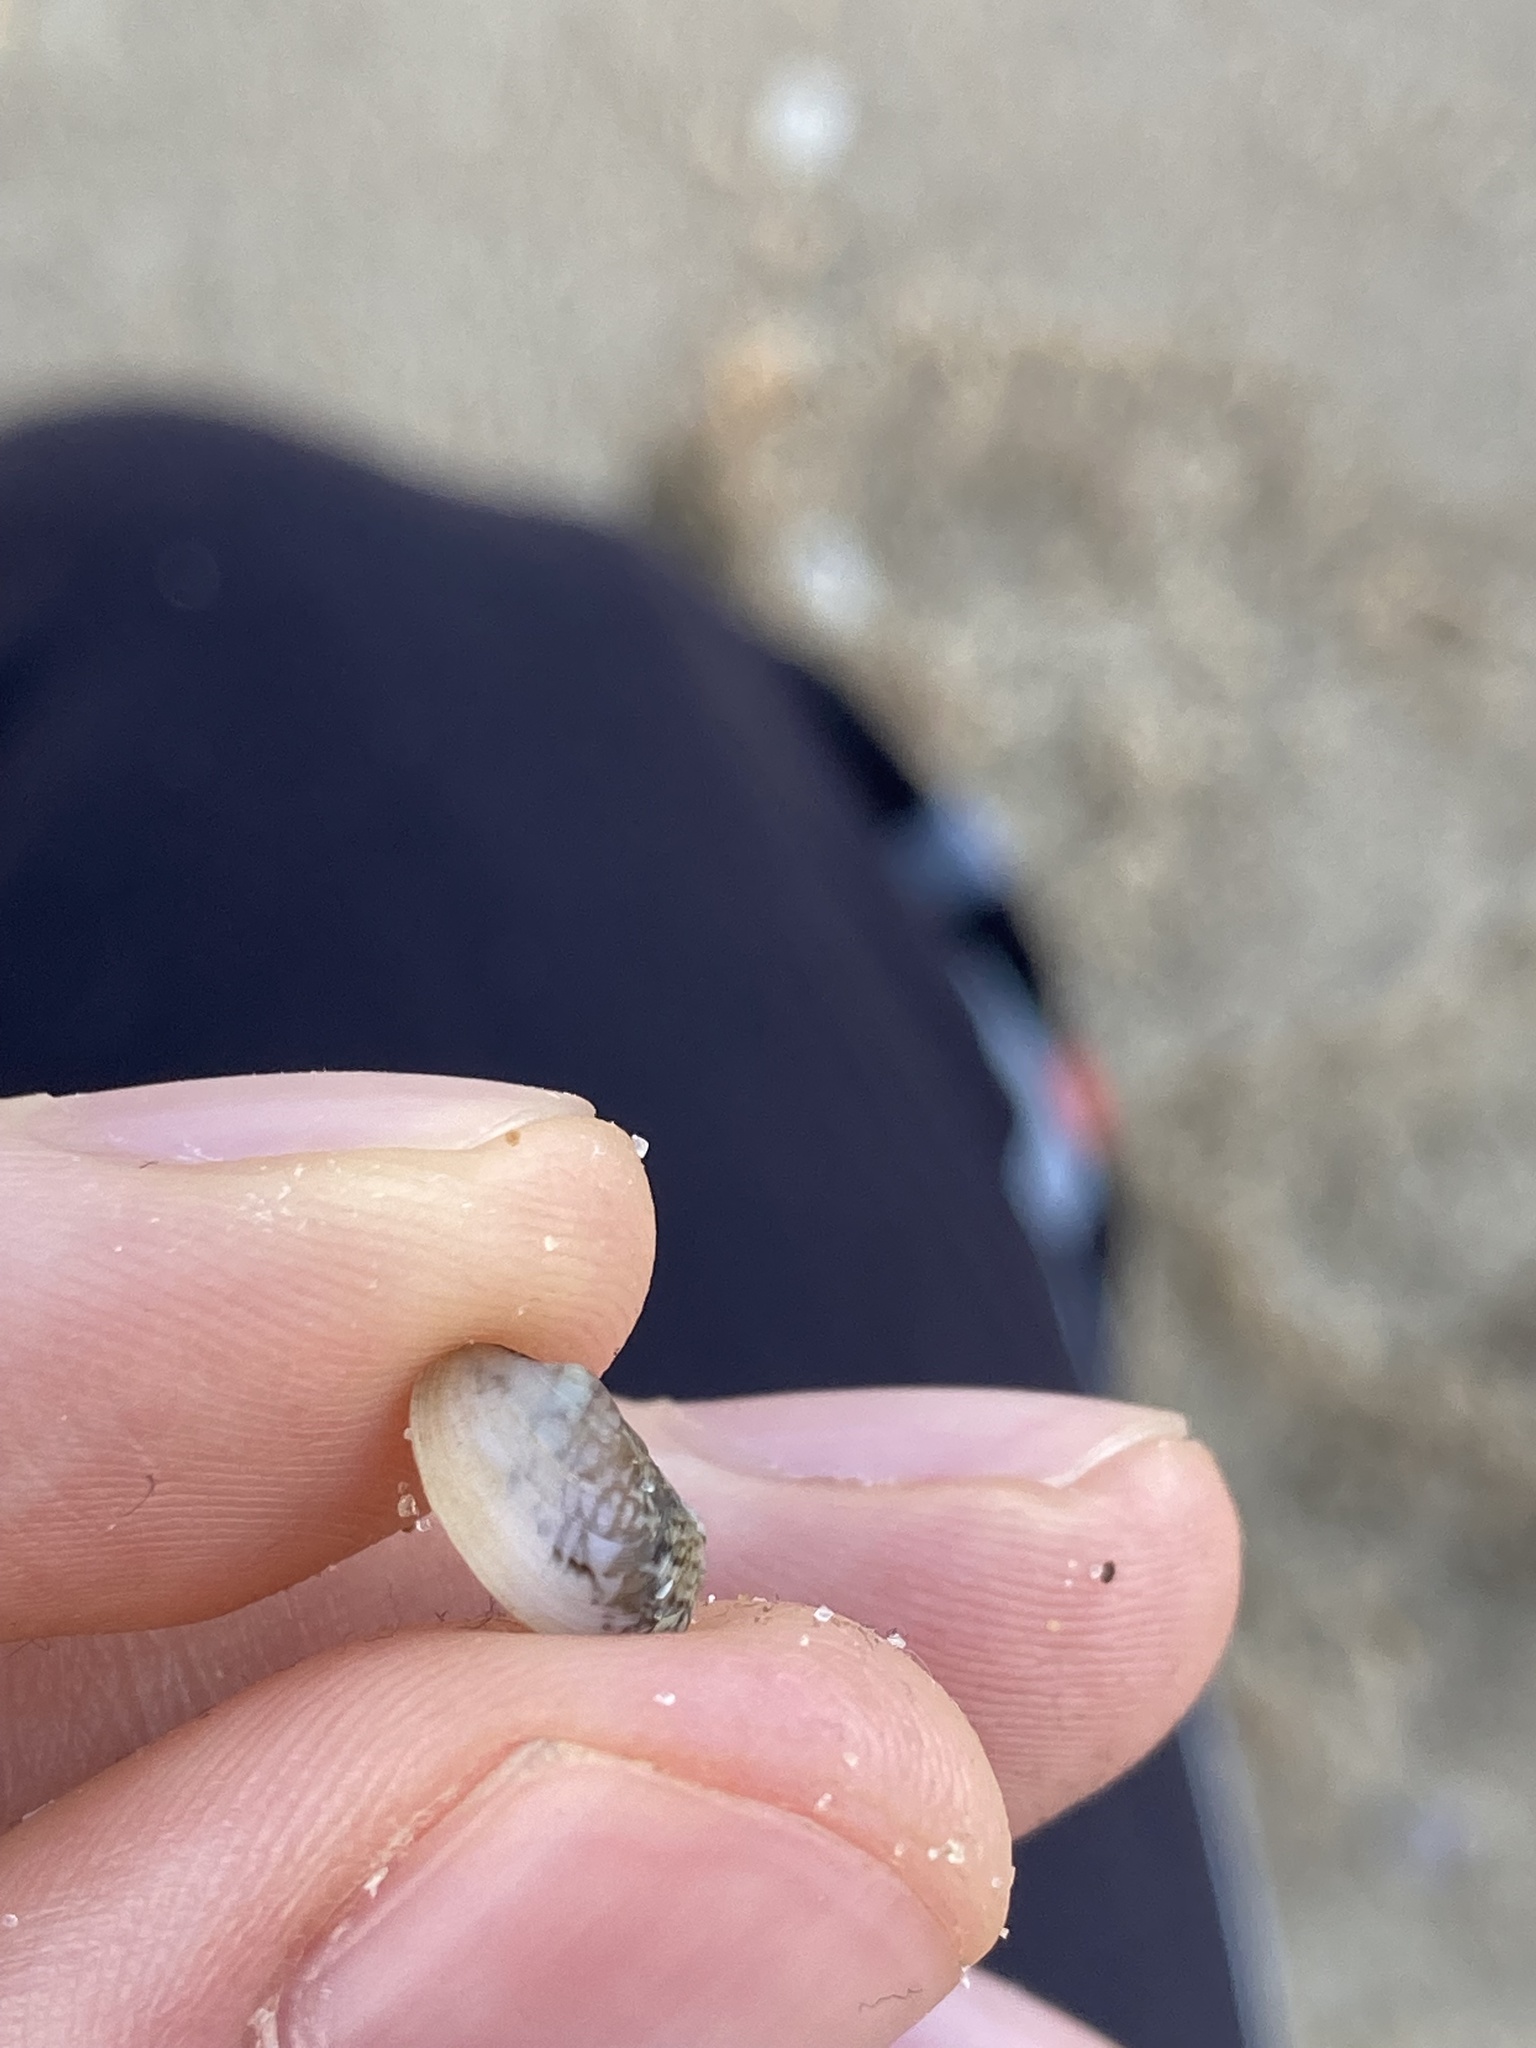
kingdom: Animalia
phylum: Mollusca
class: Bivalvia
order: Venerida
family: Veneridae
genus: Venerupis
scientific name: Venerupis anomala
